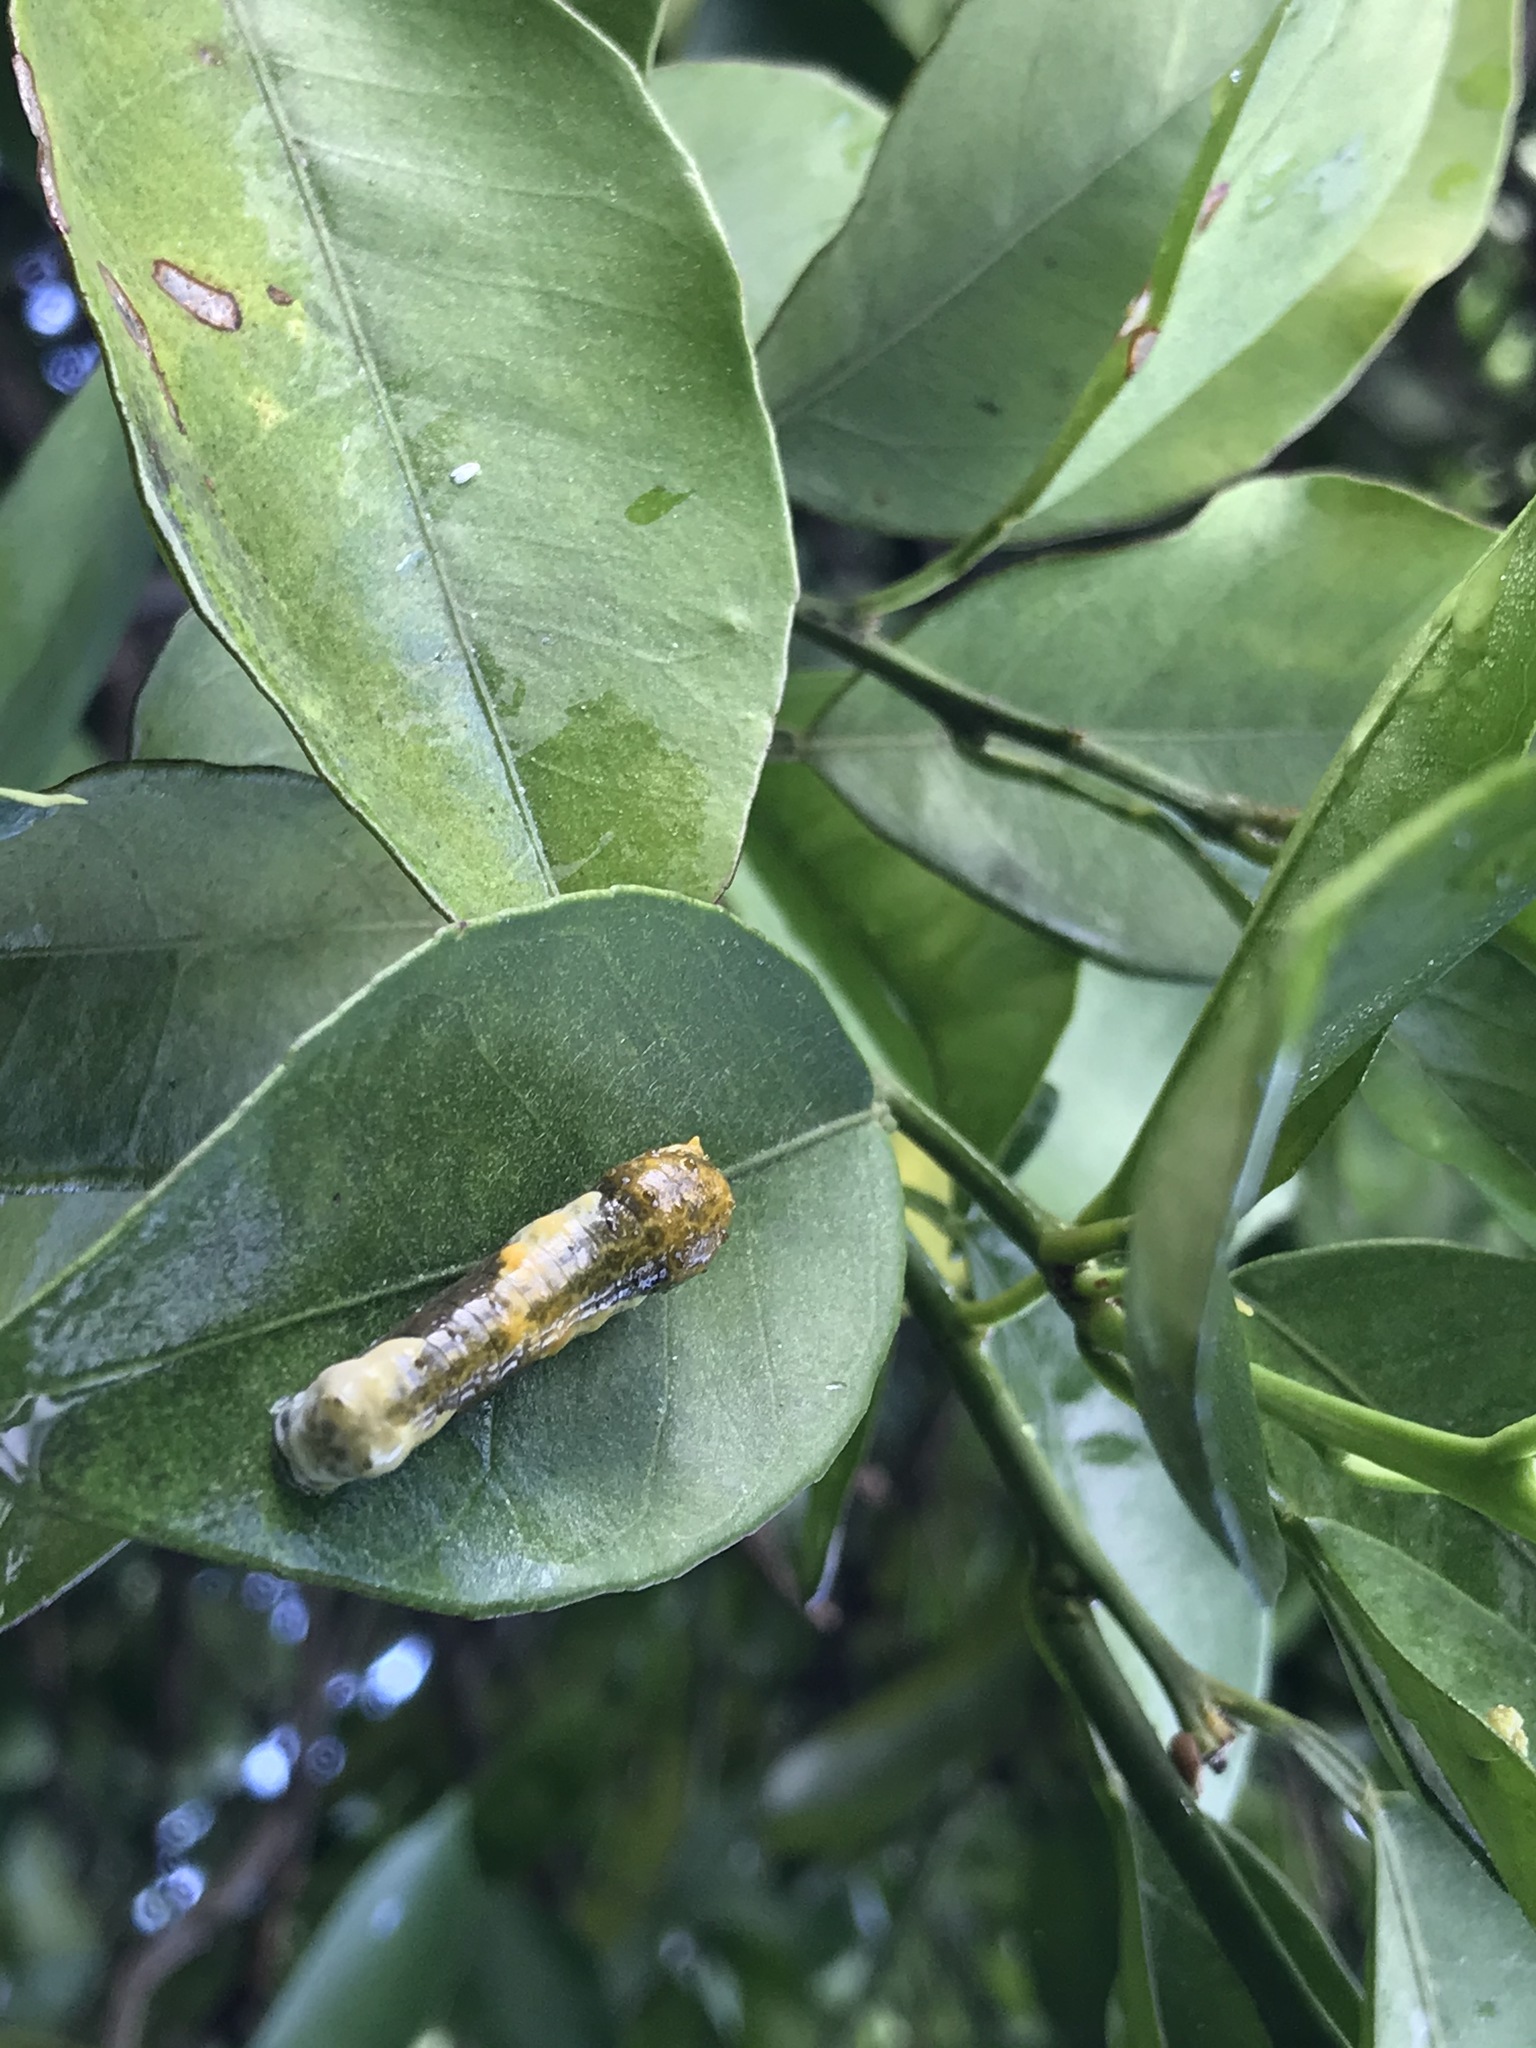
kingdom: Animalia
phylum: Arthropoda
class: Insecta
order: Lepidoptera
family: Papilionidae
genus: Papilio
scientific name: Papilio rumiko
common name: Western giant swallowtail
